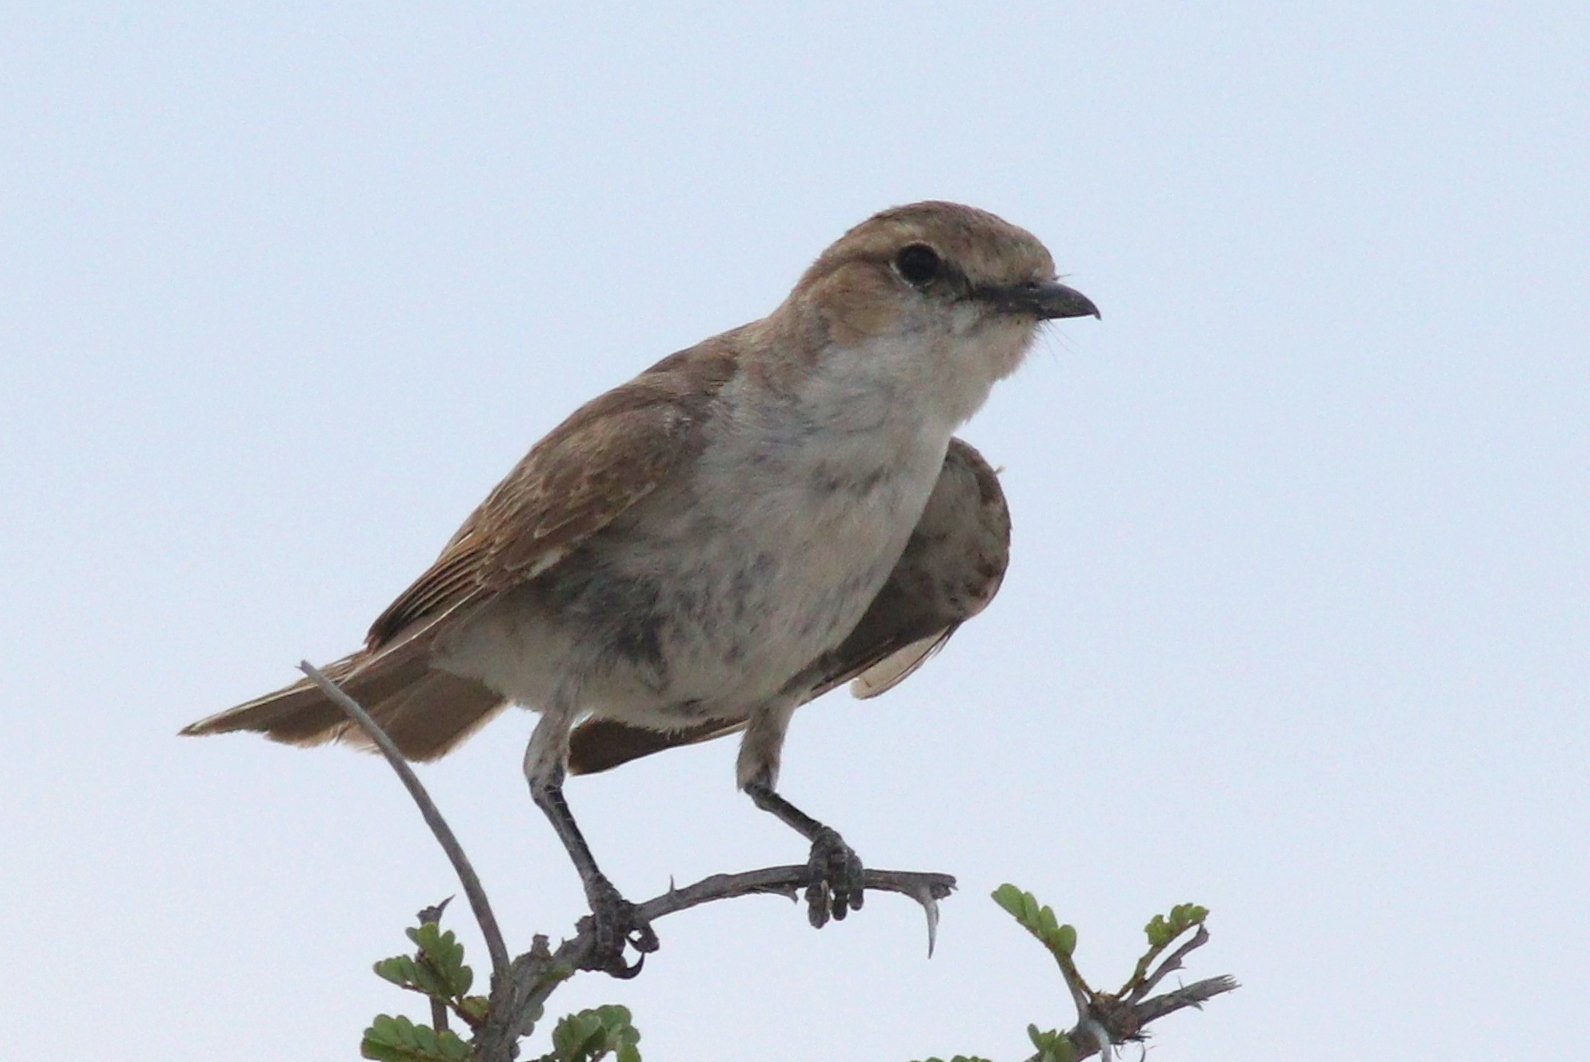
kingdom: Animalia
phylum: Chordata
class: Aves
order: Passeriformes
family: Muscicapidae
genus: Bradornis
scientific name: Bradornis mariquensis
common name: Marico flycatcher
